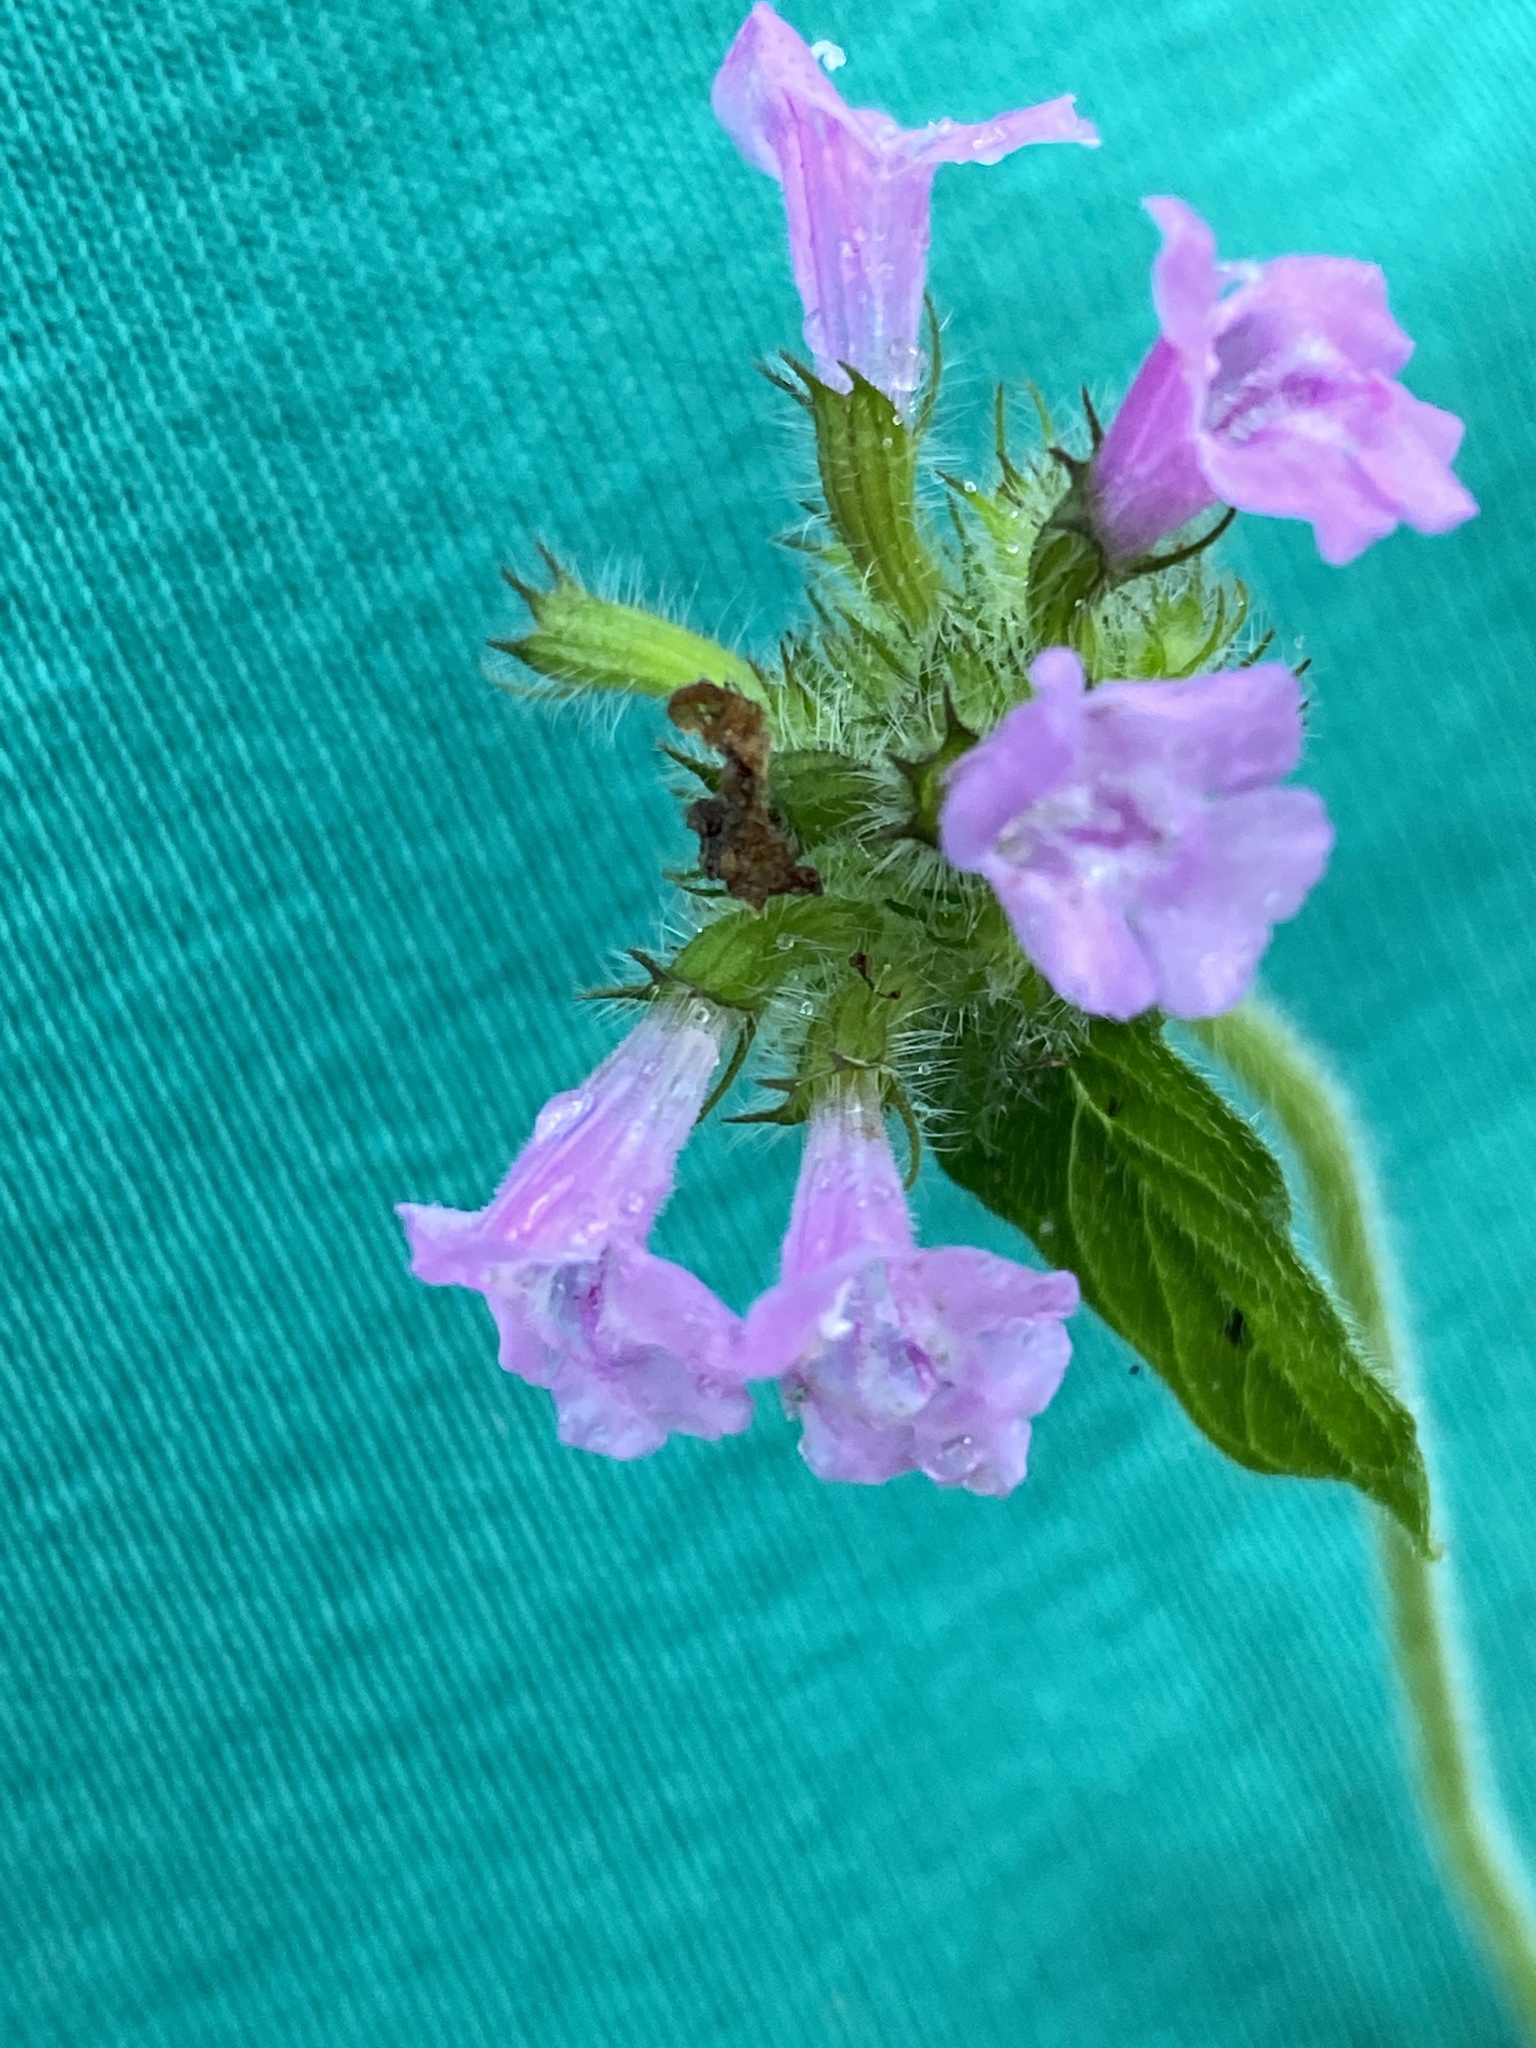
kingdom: Plantae
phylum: Tracheophyta
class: Magnoliopsida
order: Lamiales
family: Lamiaceae
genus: Clinopodium
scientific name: Clinopodium vulgare
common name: Wild basil
